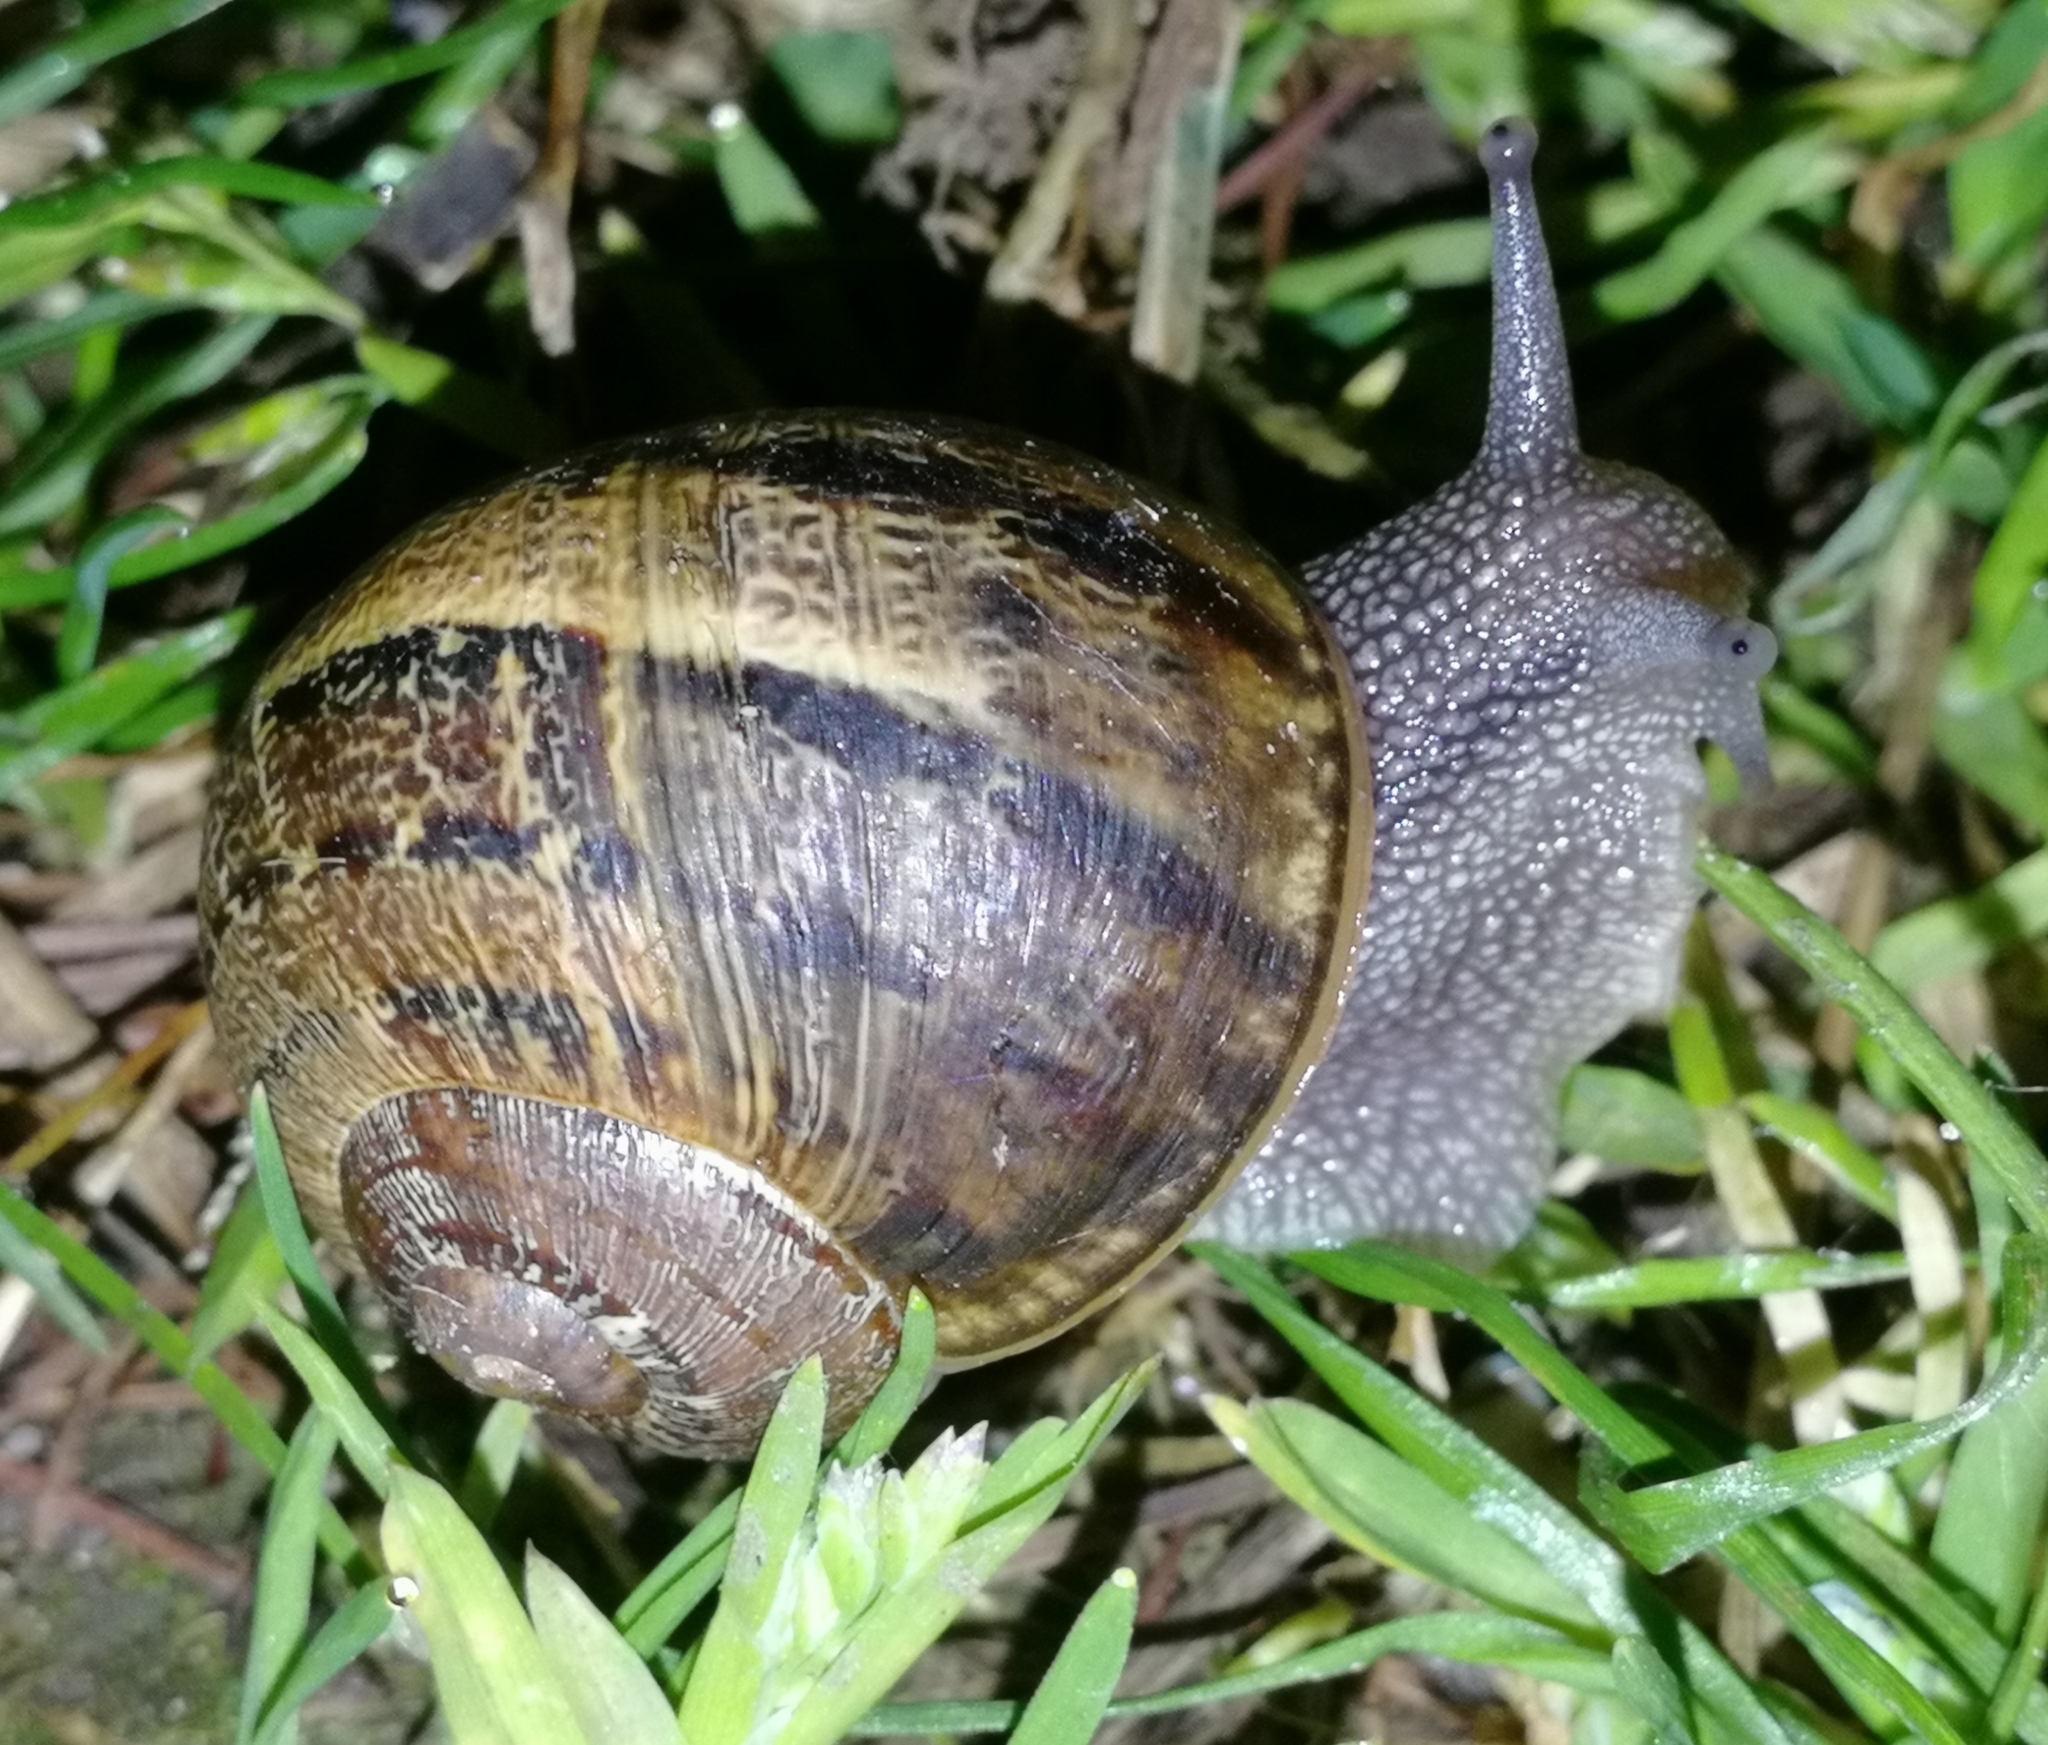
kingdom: Animalia
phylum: Mollusca
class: Gastropoda
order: Stylommatophora
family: Helicidae
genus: Cornu
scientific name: Cornu aspersum
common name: Brown garden snail
